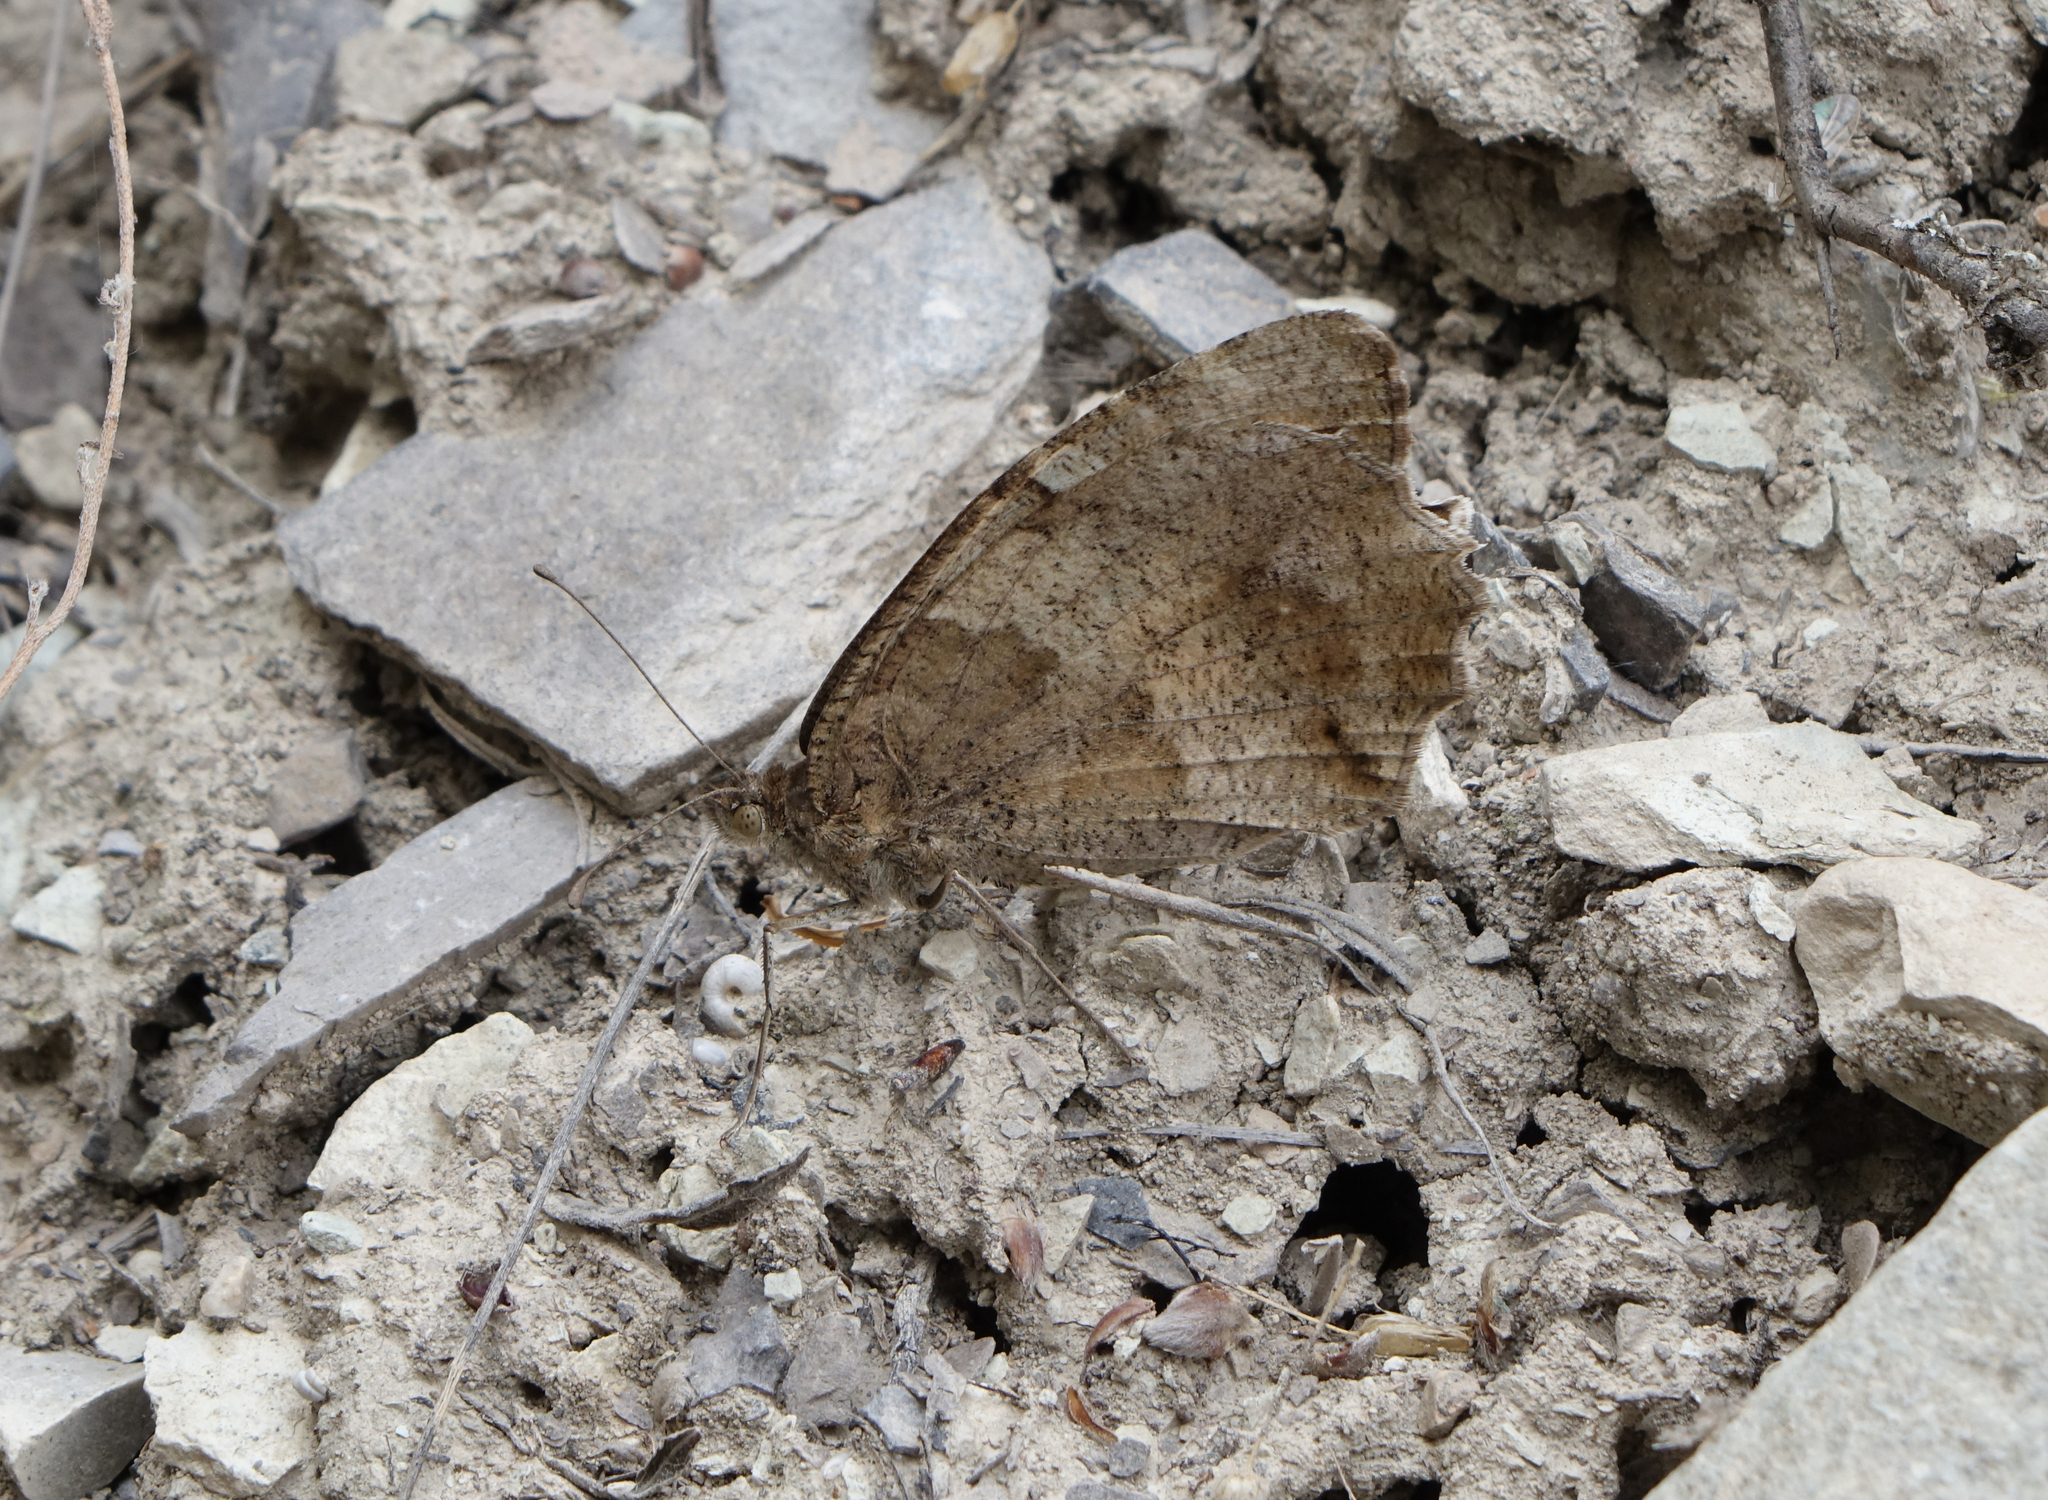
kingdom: Animalia
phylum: Arthropoda
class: Insecta
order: Lepidoptera
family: Nymphalidae
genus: Satyrus
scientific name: Satyrus briseis
